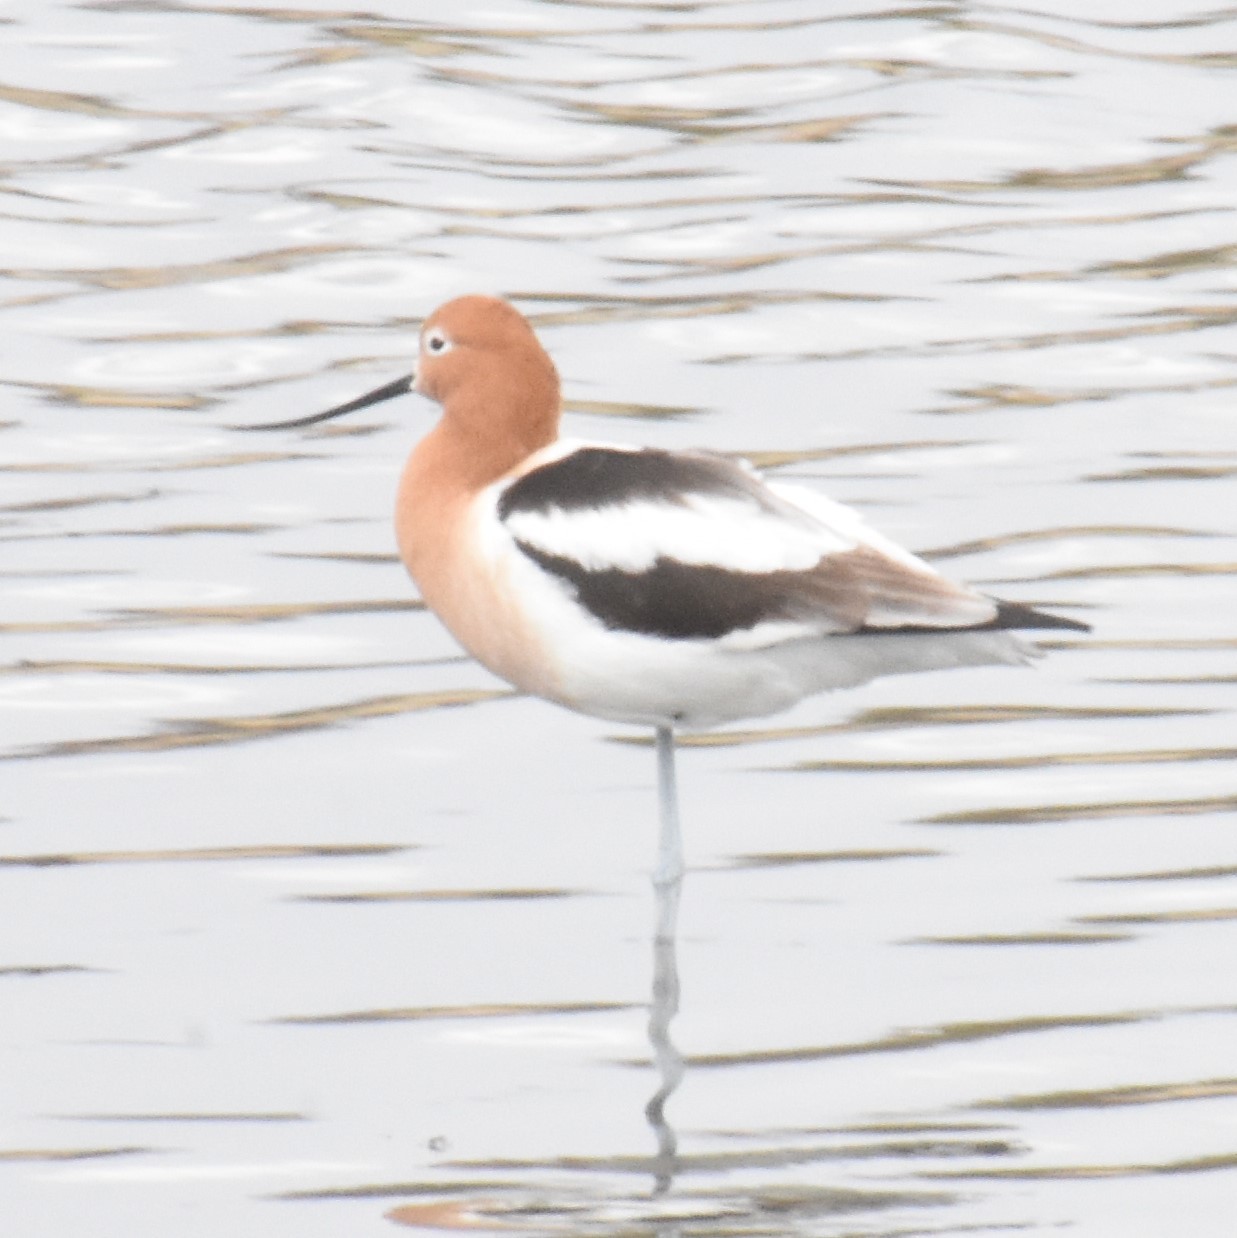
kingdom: Animalia
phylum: Chordata
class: Aves
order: Charadriiformes
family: Recurvirostridae
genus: Recurvirostra
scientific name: Recurvirostra americana
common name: American avocet
